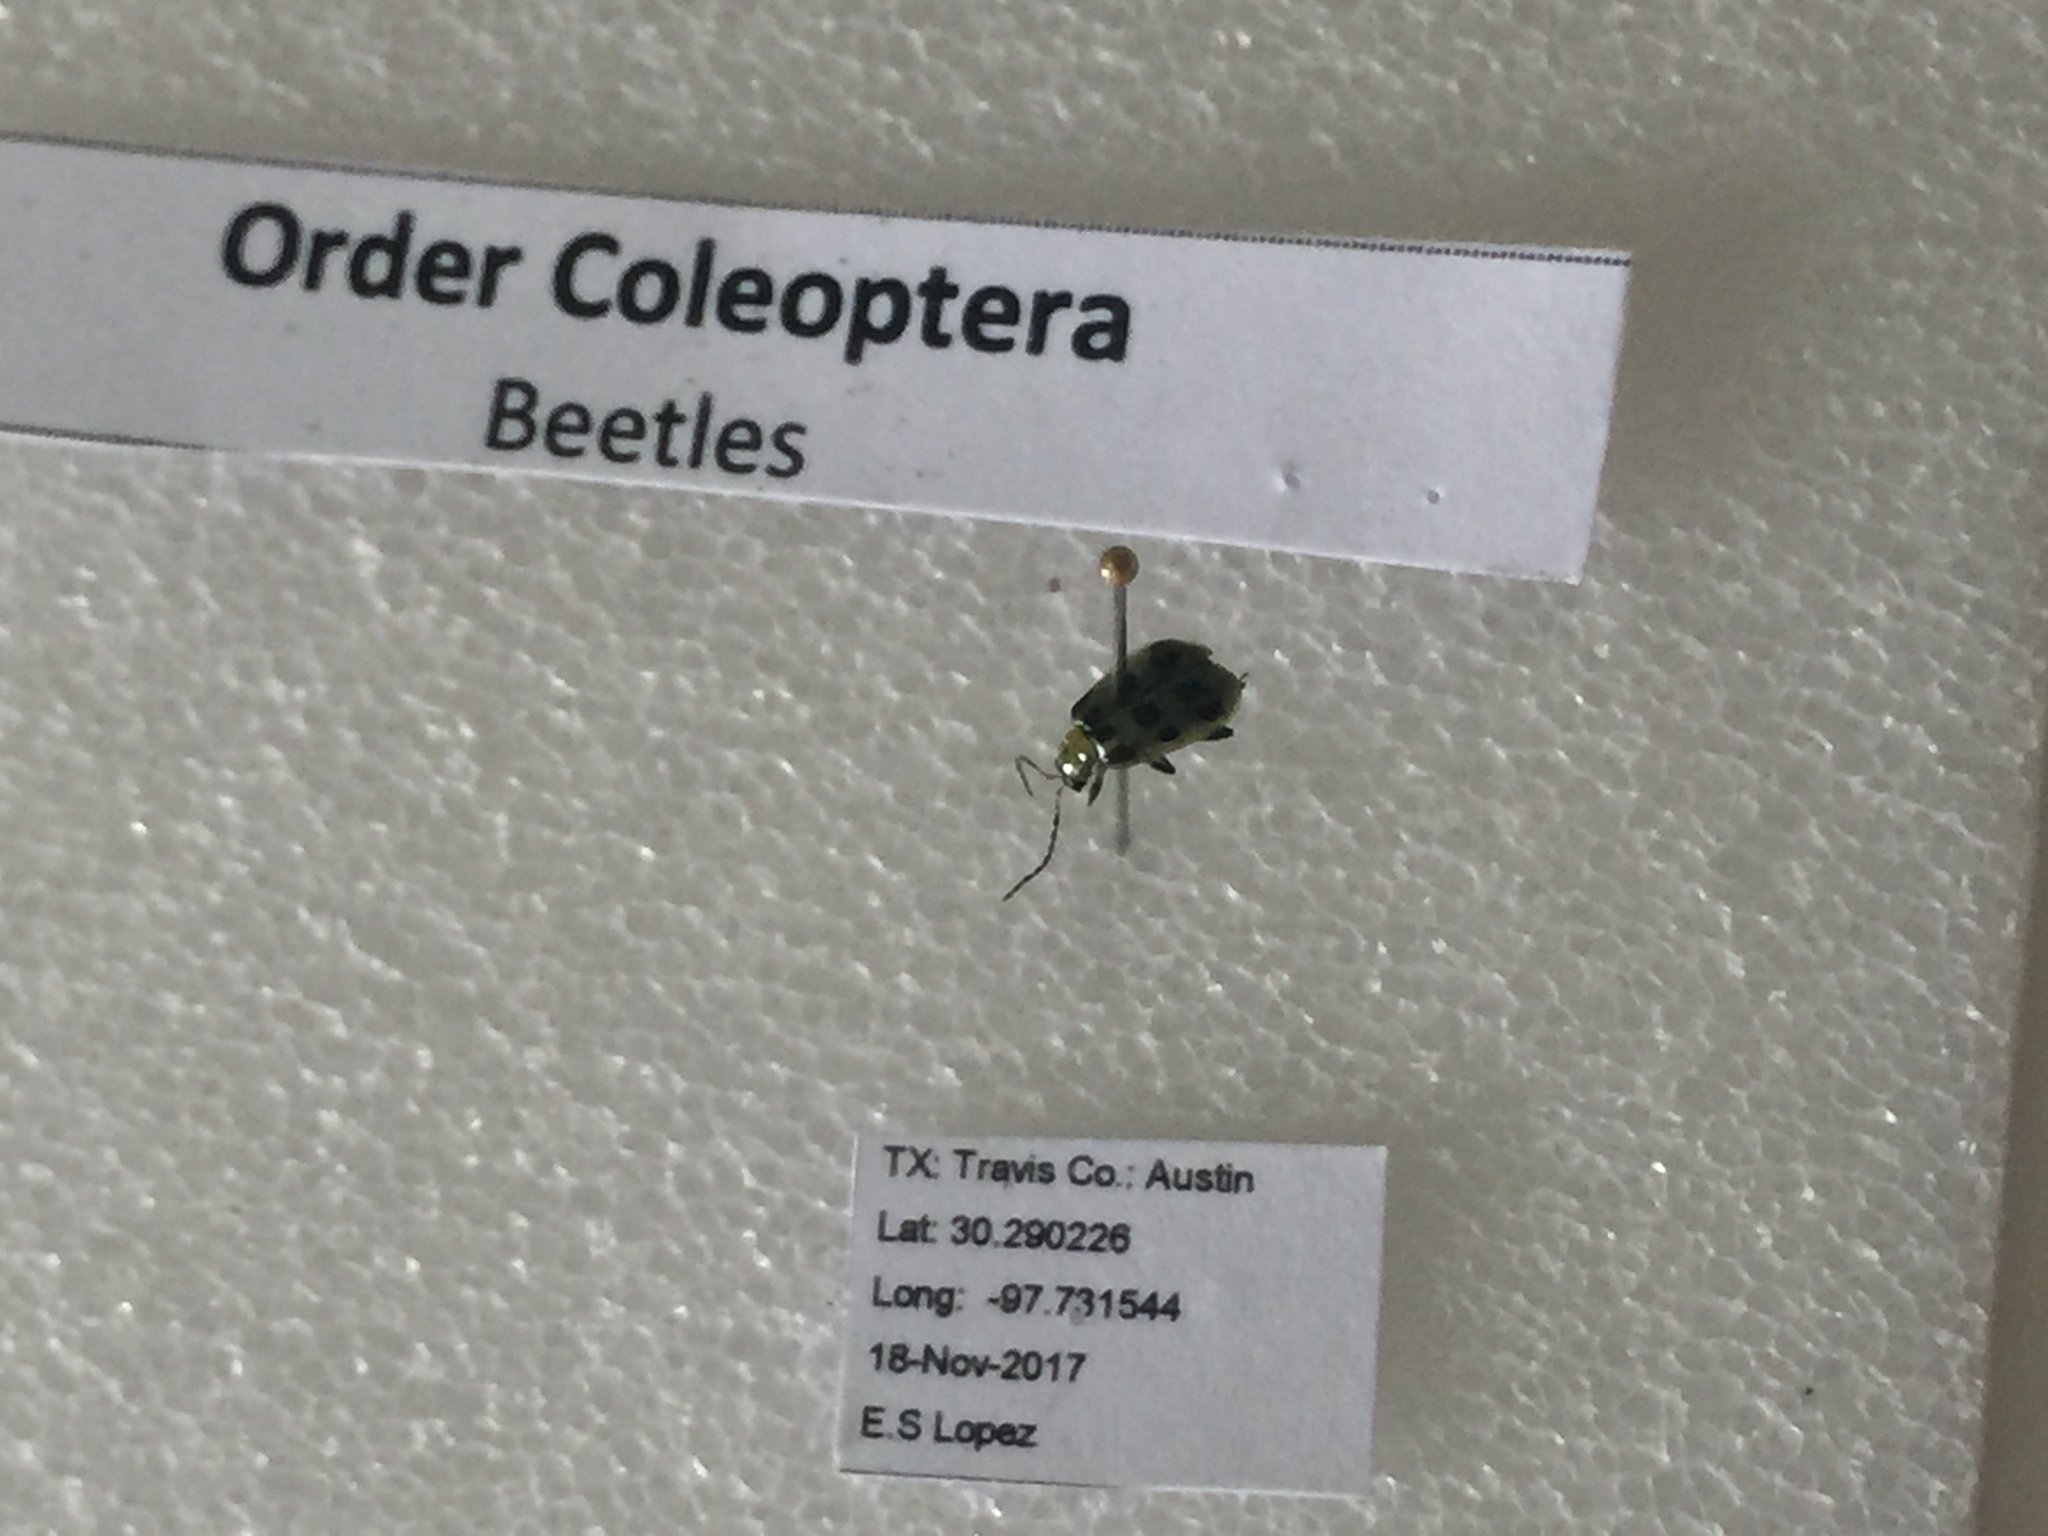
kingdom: Animalia
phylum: Arthropoda
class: Insecta
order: Coleoptera
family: Chrysomelidae
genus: Diabrotica
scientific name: Diabrotica undecimpunctata
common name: Spotted cucumber beetle
